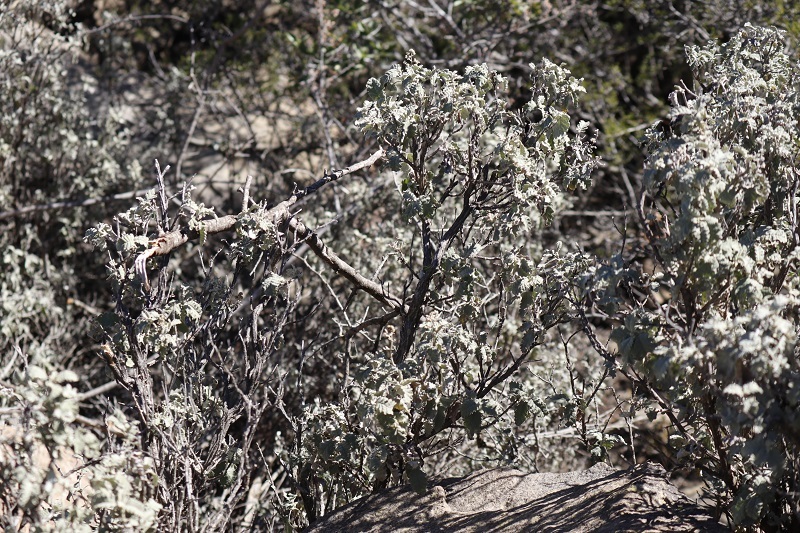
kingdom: Plantae
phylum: Tracheophyta
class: Magnoliopsida
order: Lamiales
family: Scrophulariaceae
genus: Buddleja
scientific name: Buddleja glomerata
